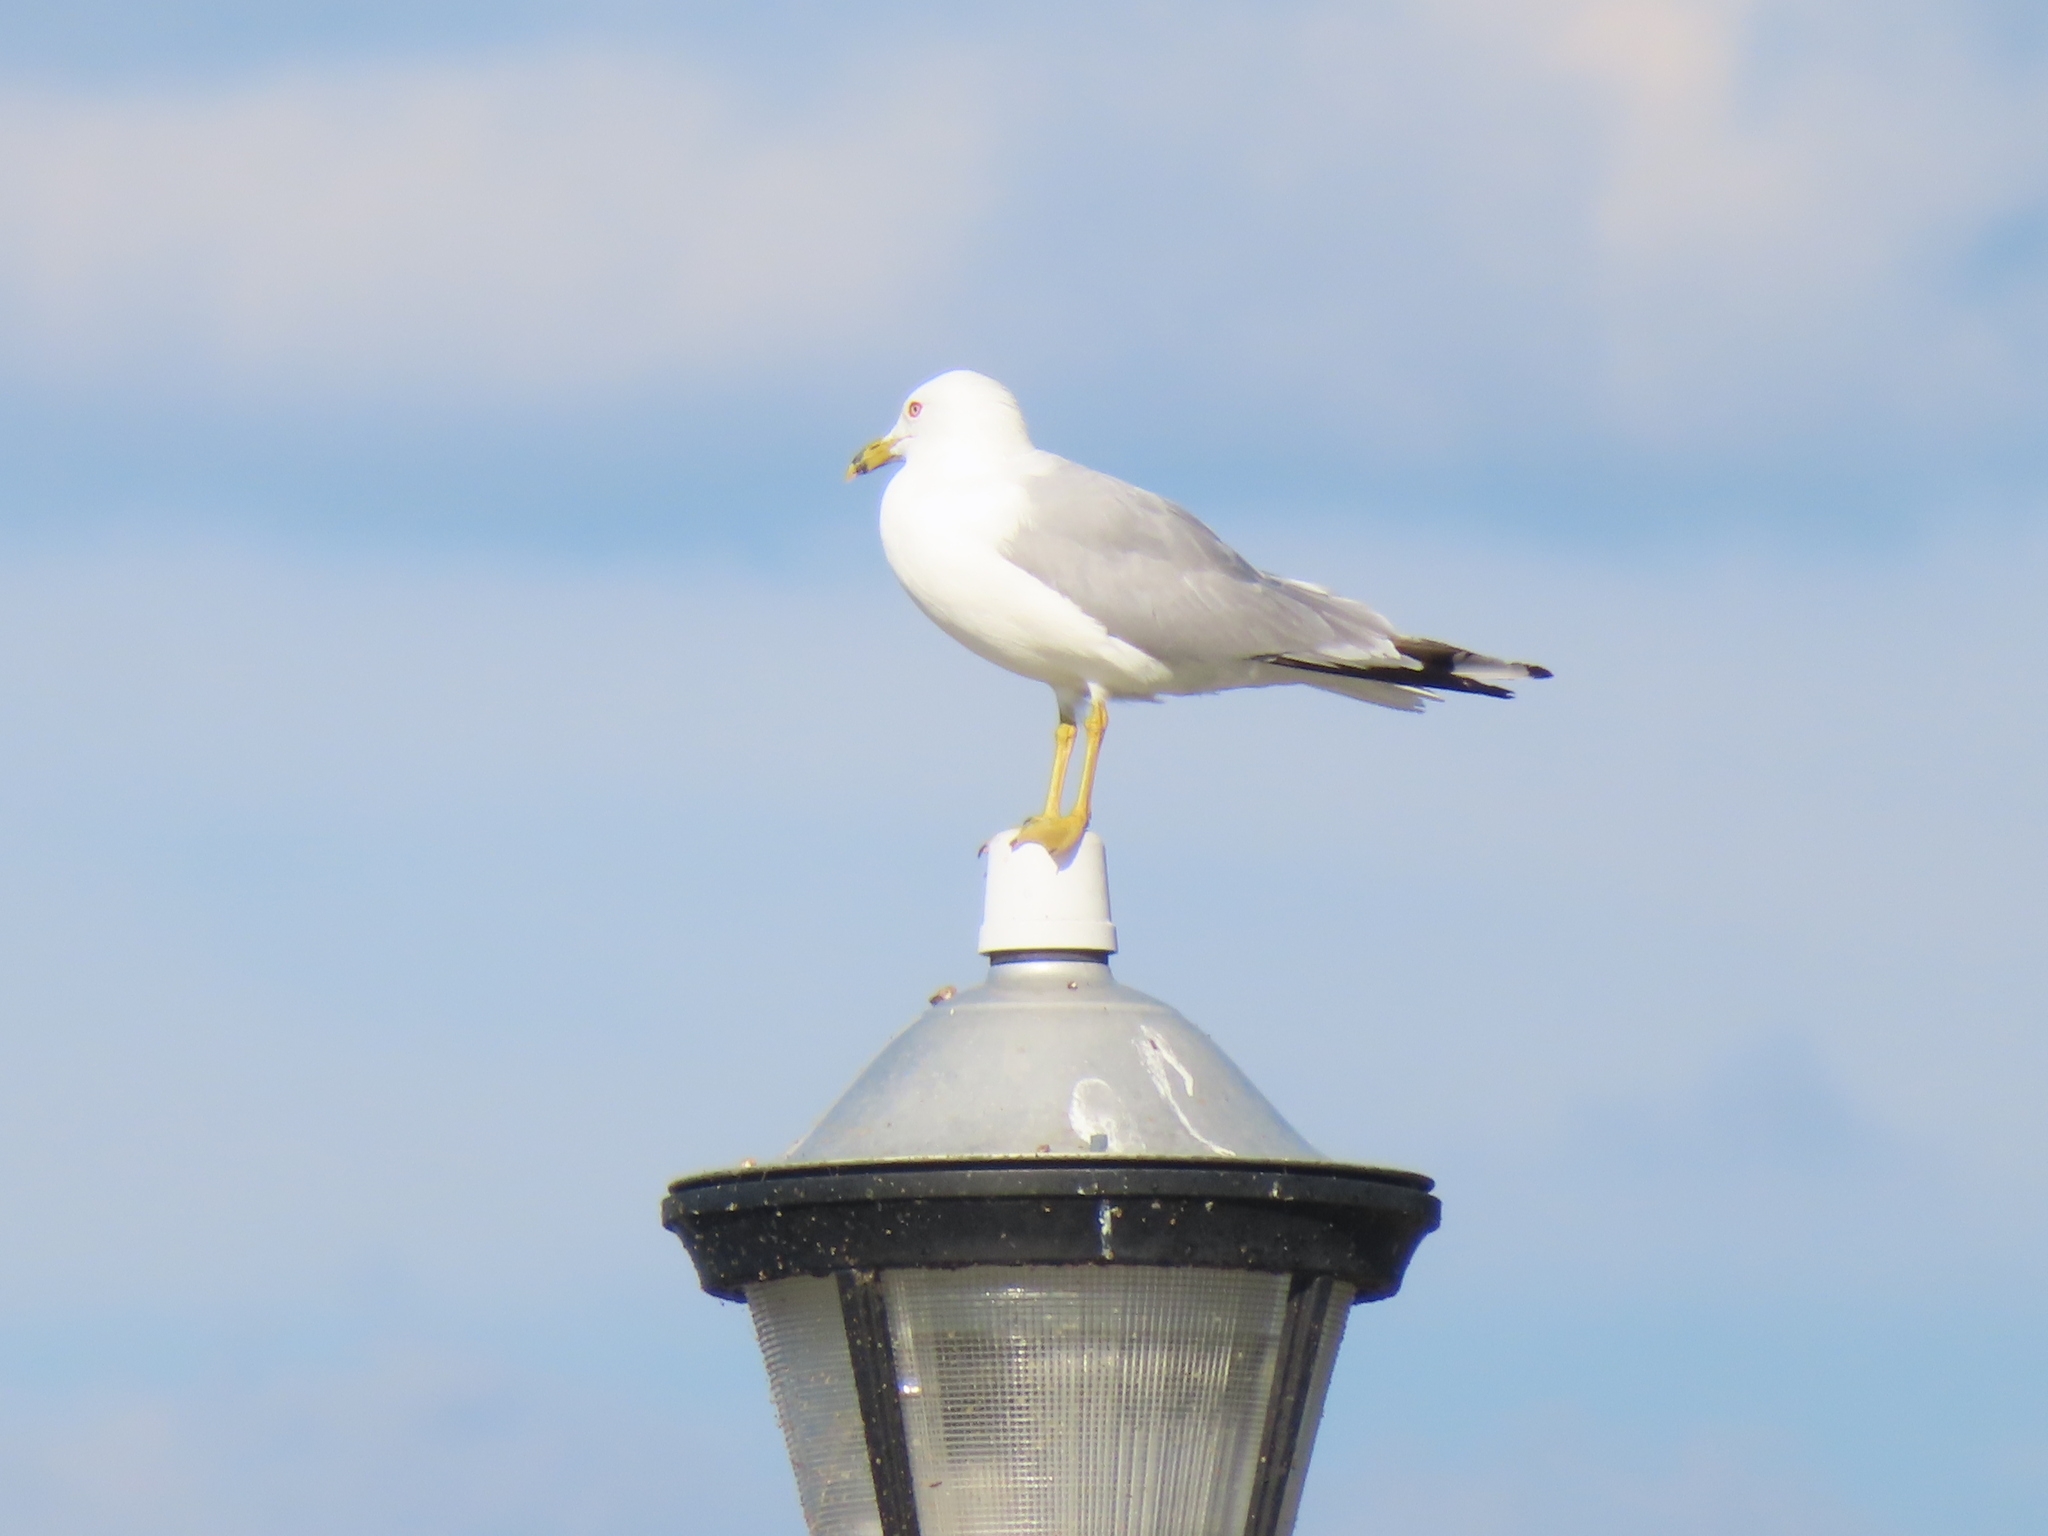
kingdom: Animalia
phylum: Chordata
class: Aves
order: Charadriiformes
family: Laridae
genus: Larus
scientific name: Larus delawarensis
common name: Ring-billed gull
